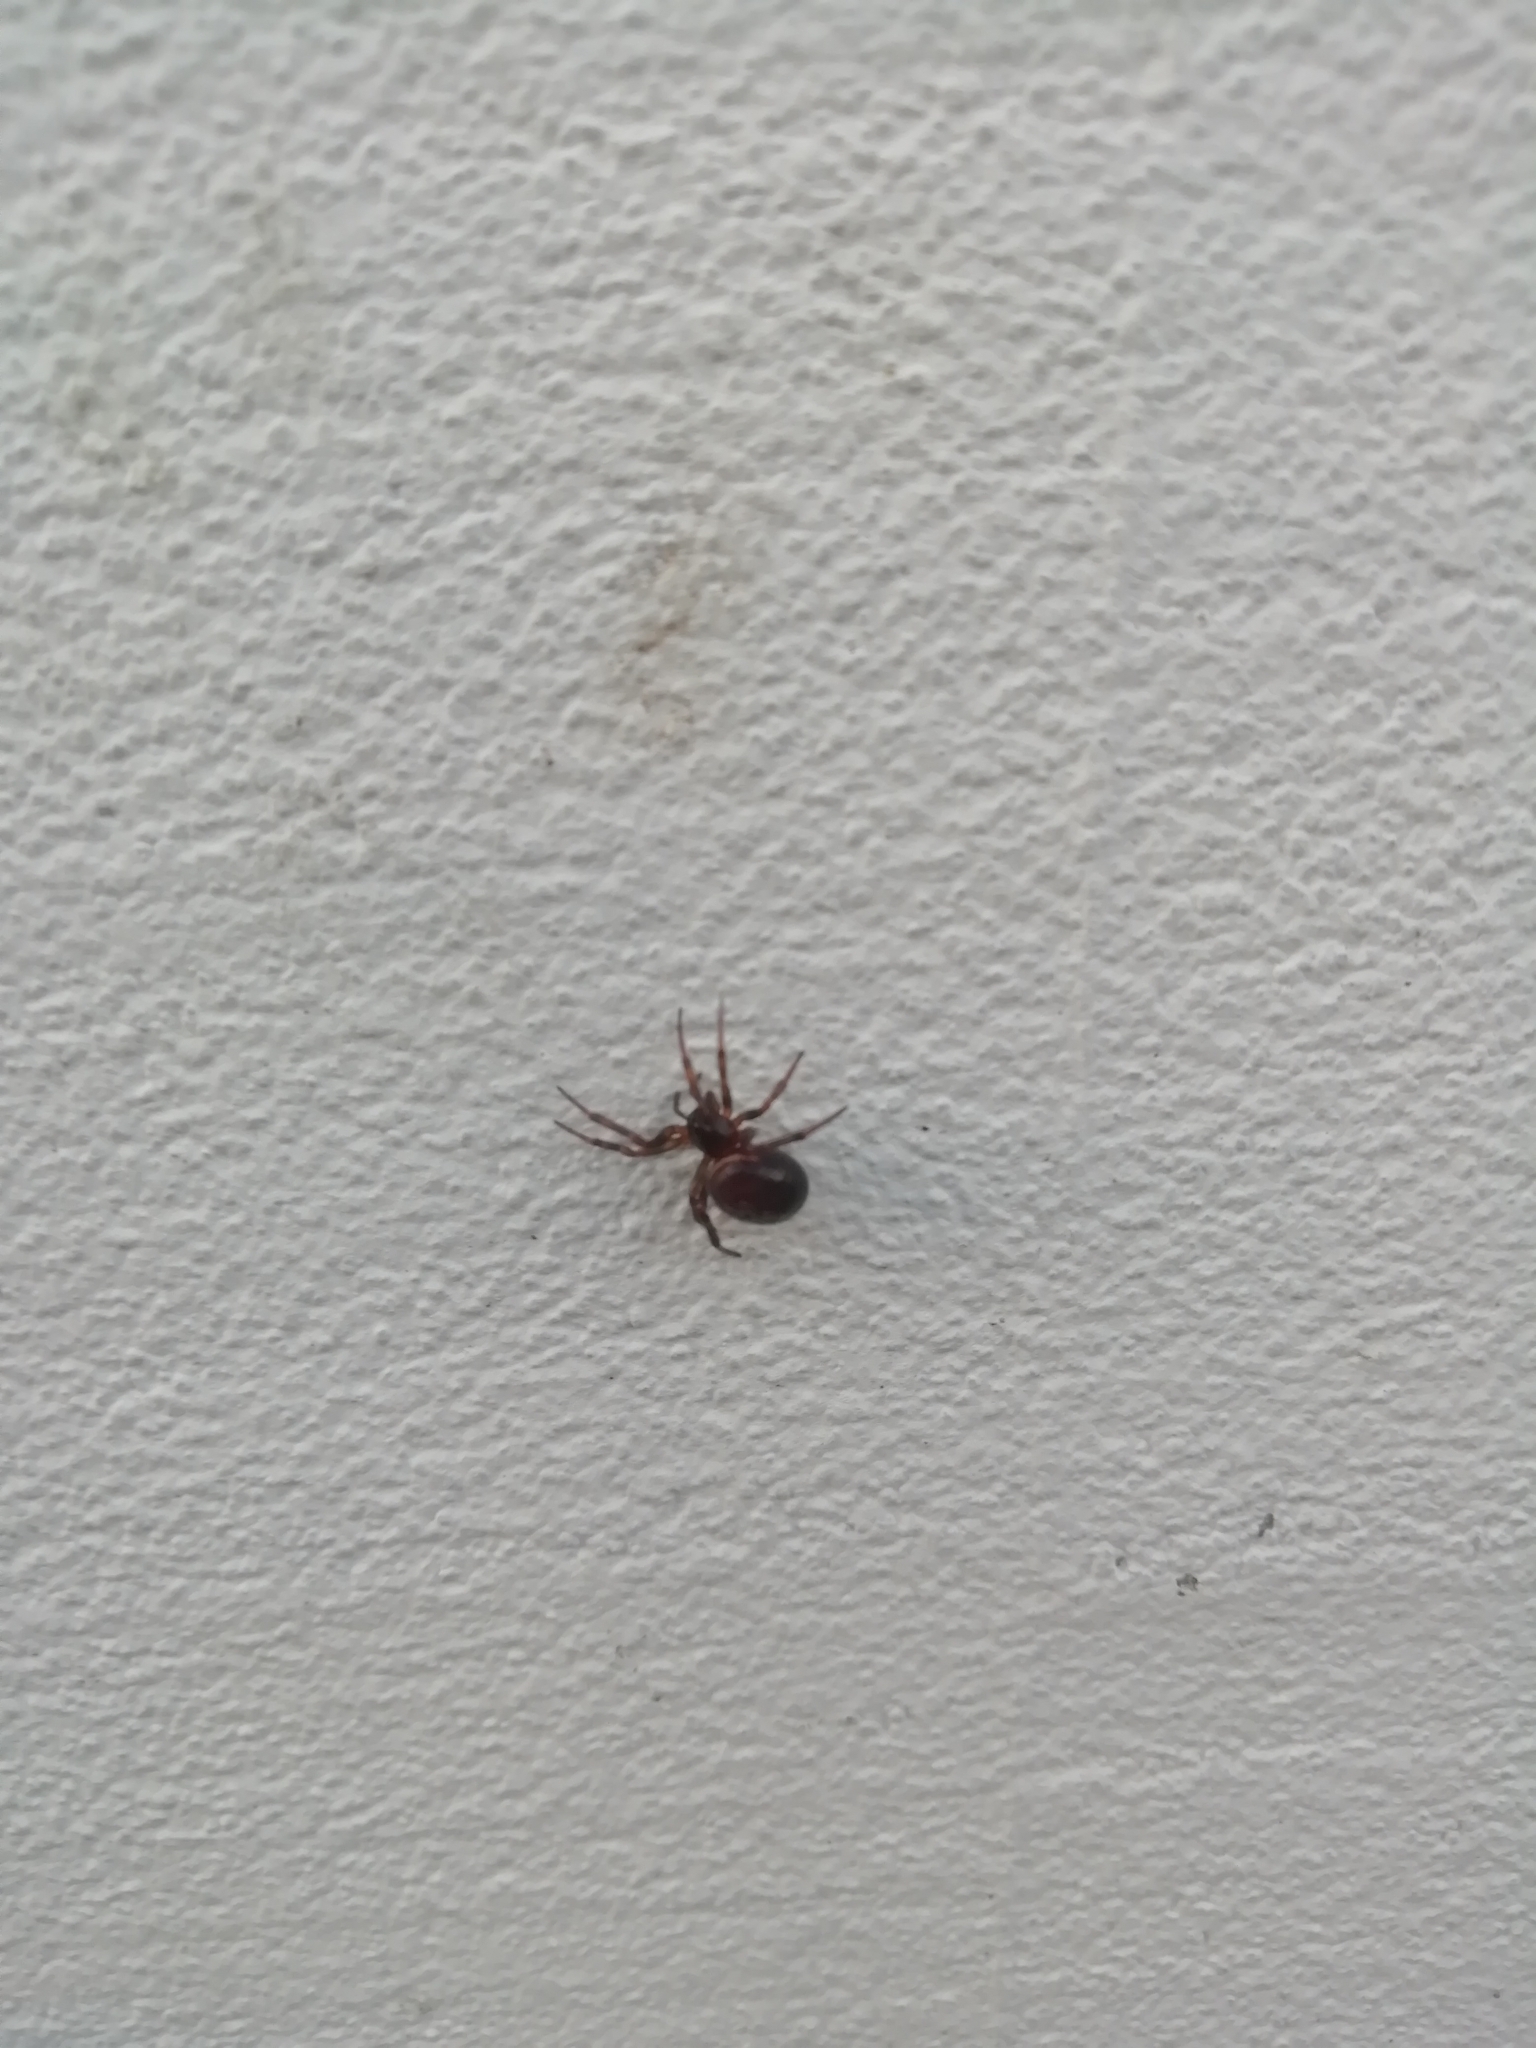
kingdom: Animalia
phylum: Arthropoda
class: Arachnida
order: Araneae
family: Theridiidae
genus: Steatoda
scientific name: Steatoda bipunctata
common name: False widow
